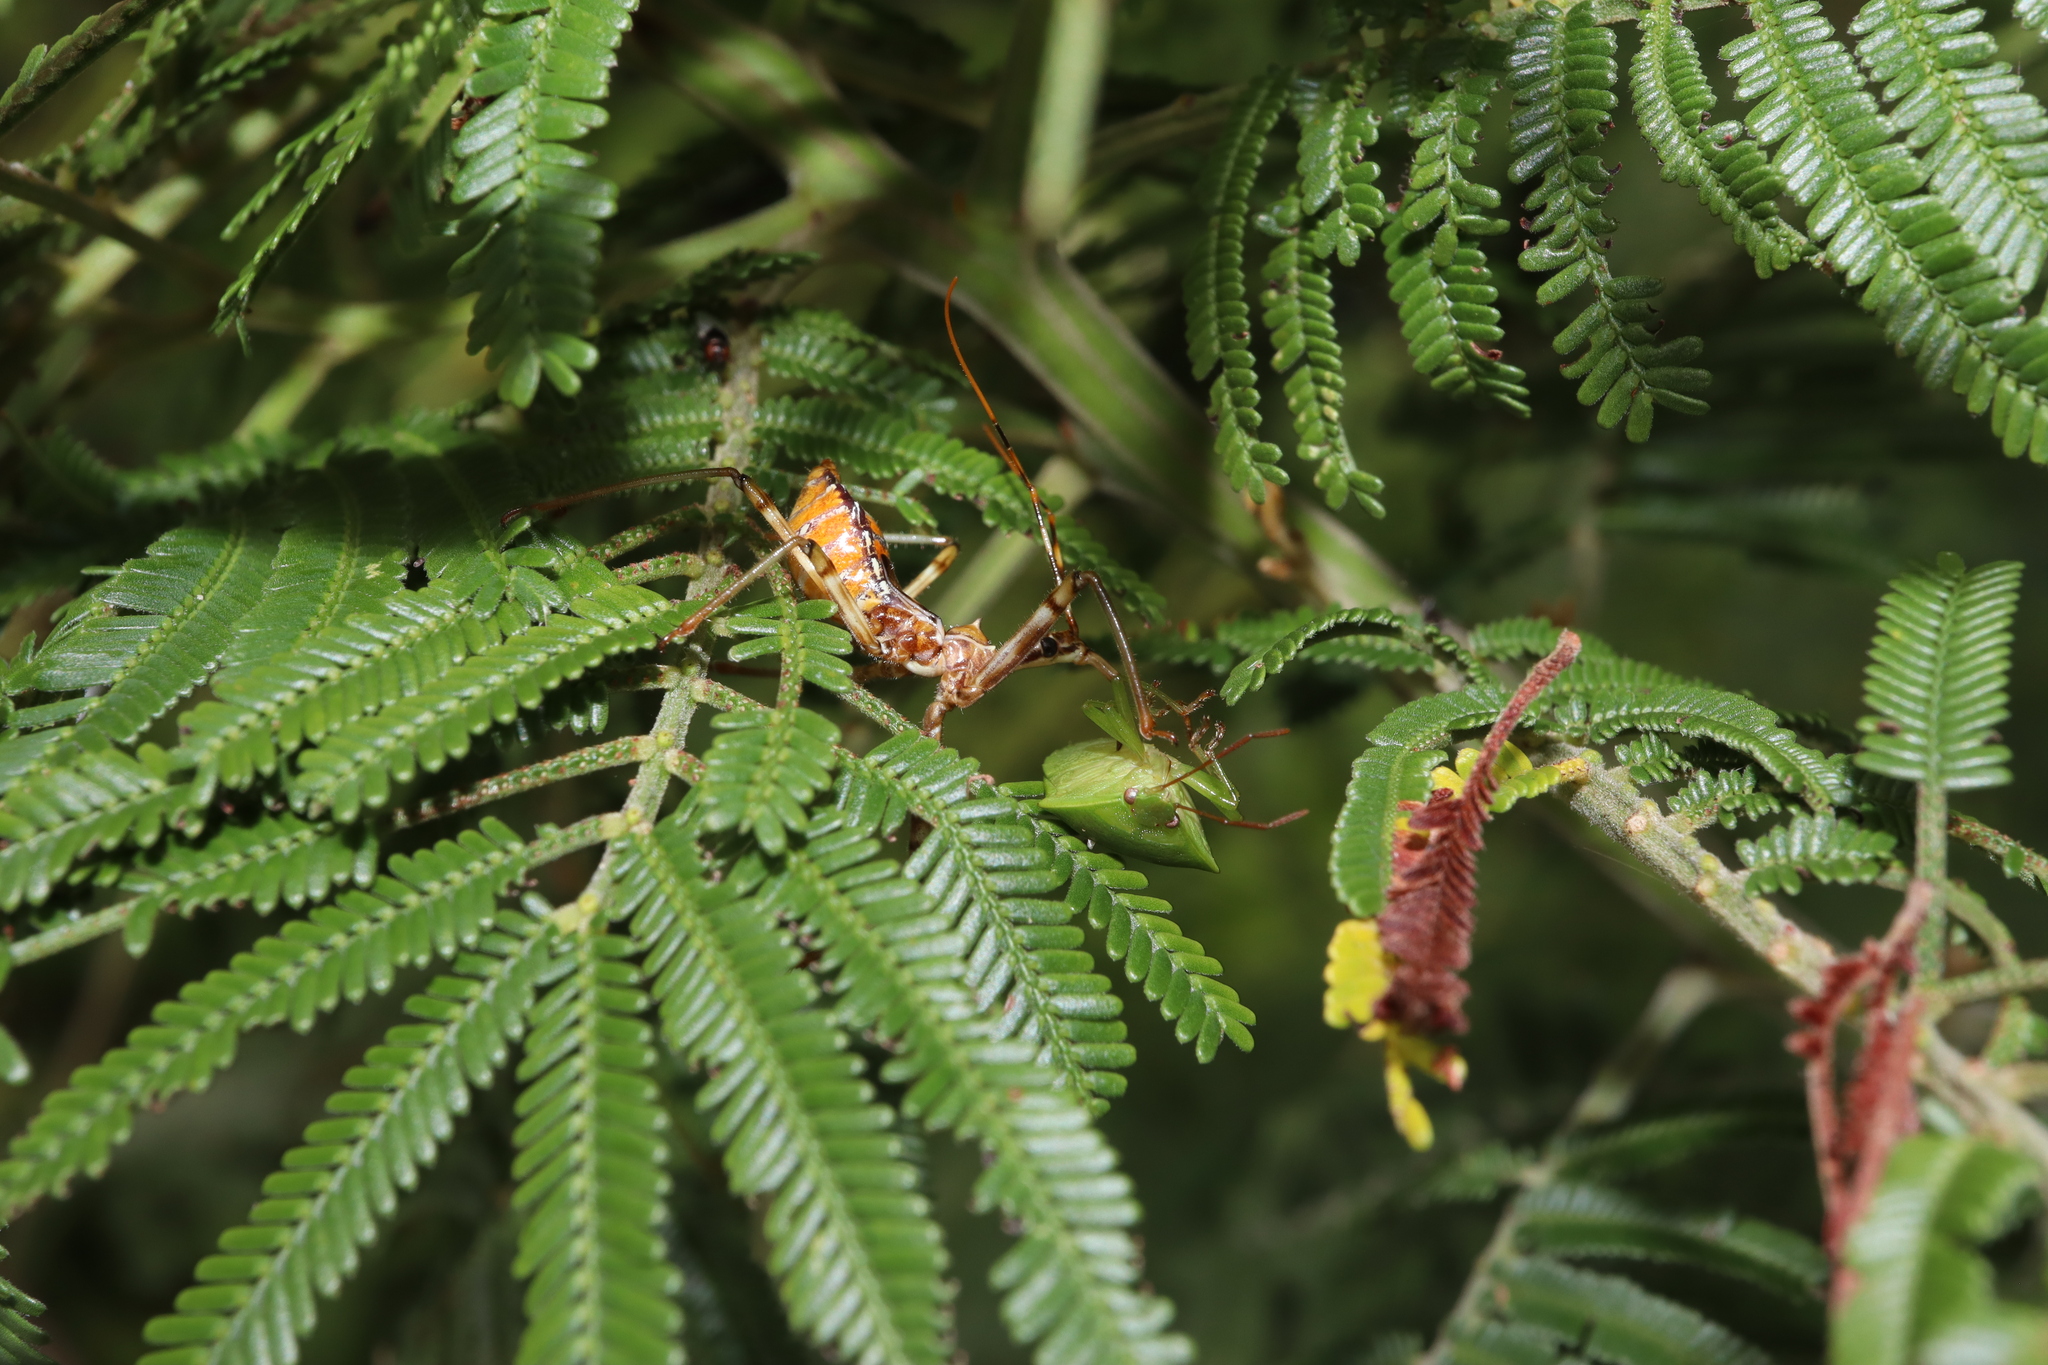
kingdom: Animalia
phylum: Arthropoda
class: Insecta
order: Hemiptera
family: Reduviidae
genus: Pristhesancus
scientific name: Pristhesancus plagipennis
